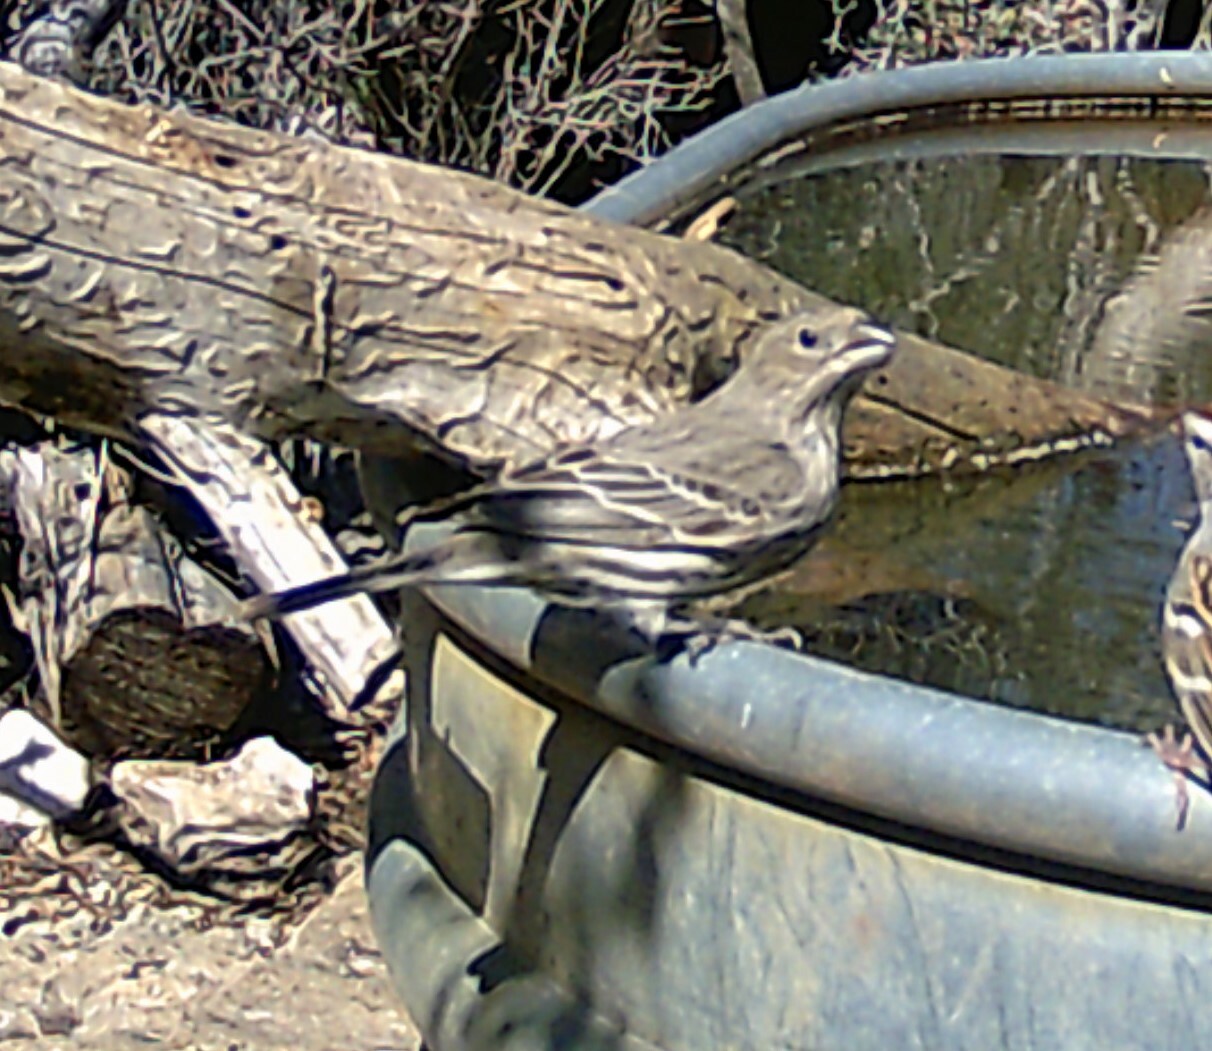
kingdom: Animalia
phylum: Chordata
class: Aves
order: Passeriformes
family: Fringillidae
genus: Haemorhous
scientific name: Haemorhous mexicanus
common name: House finch
